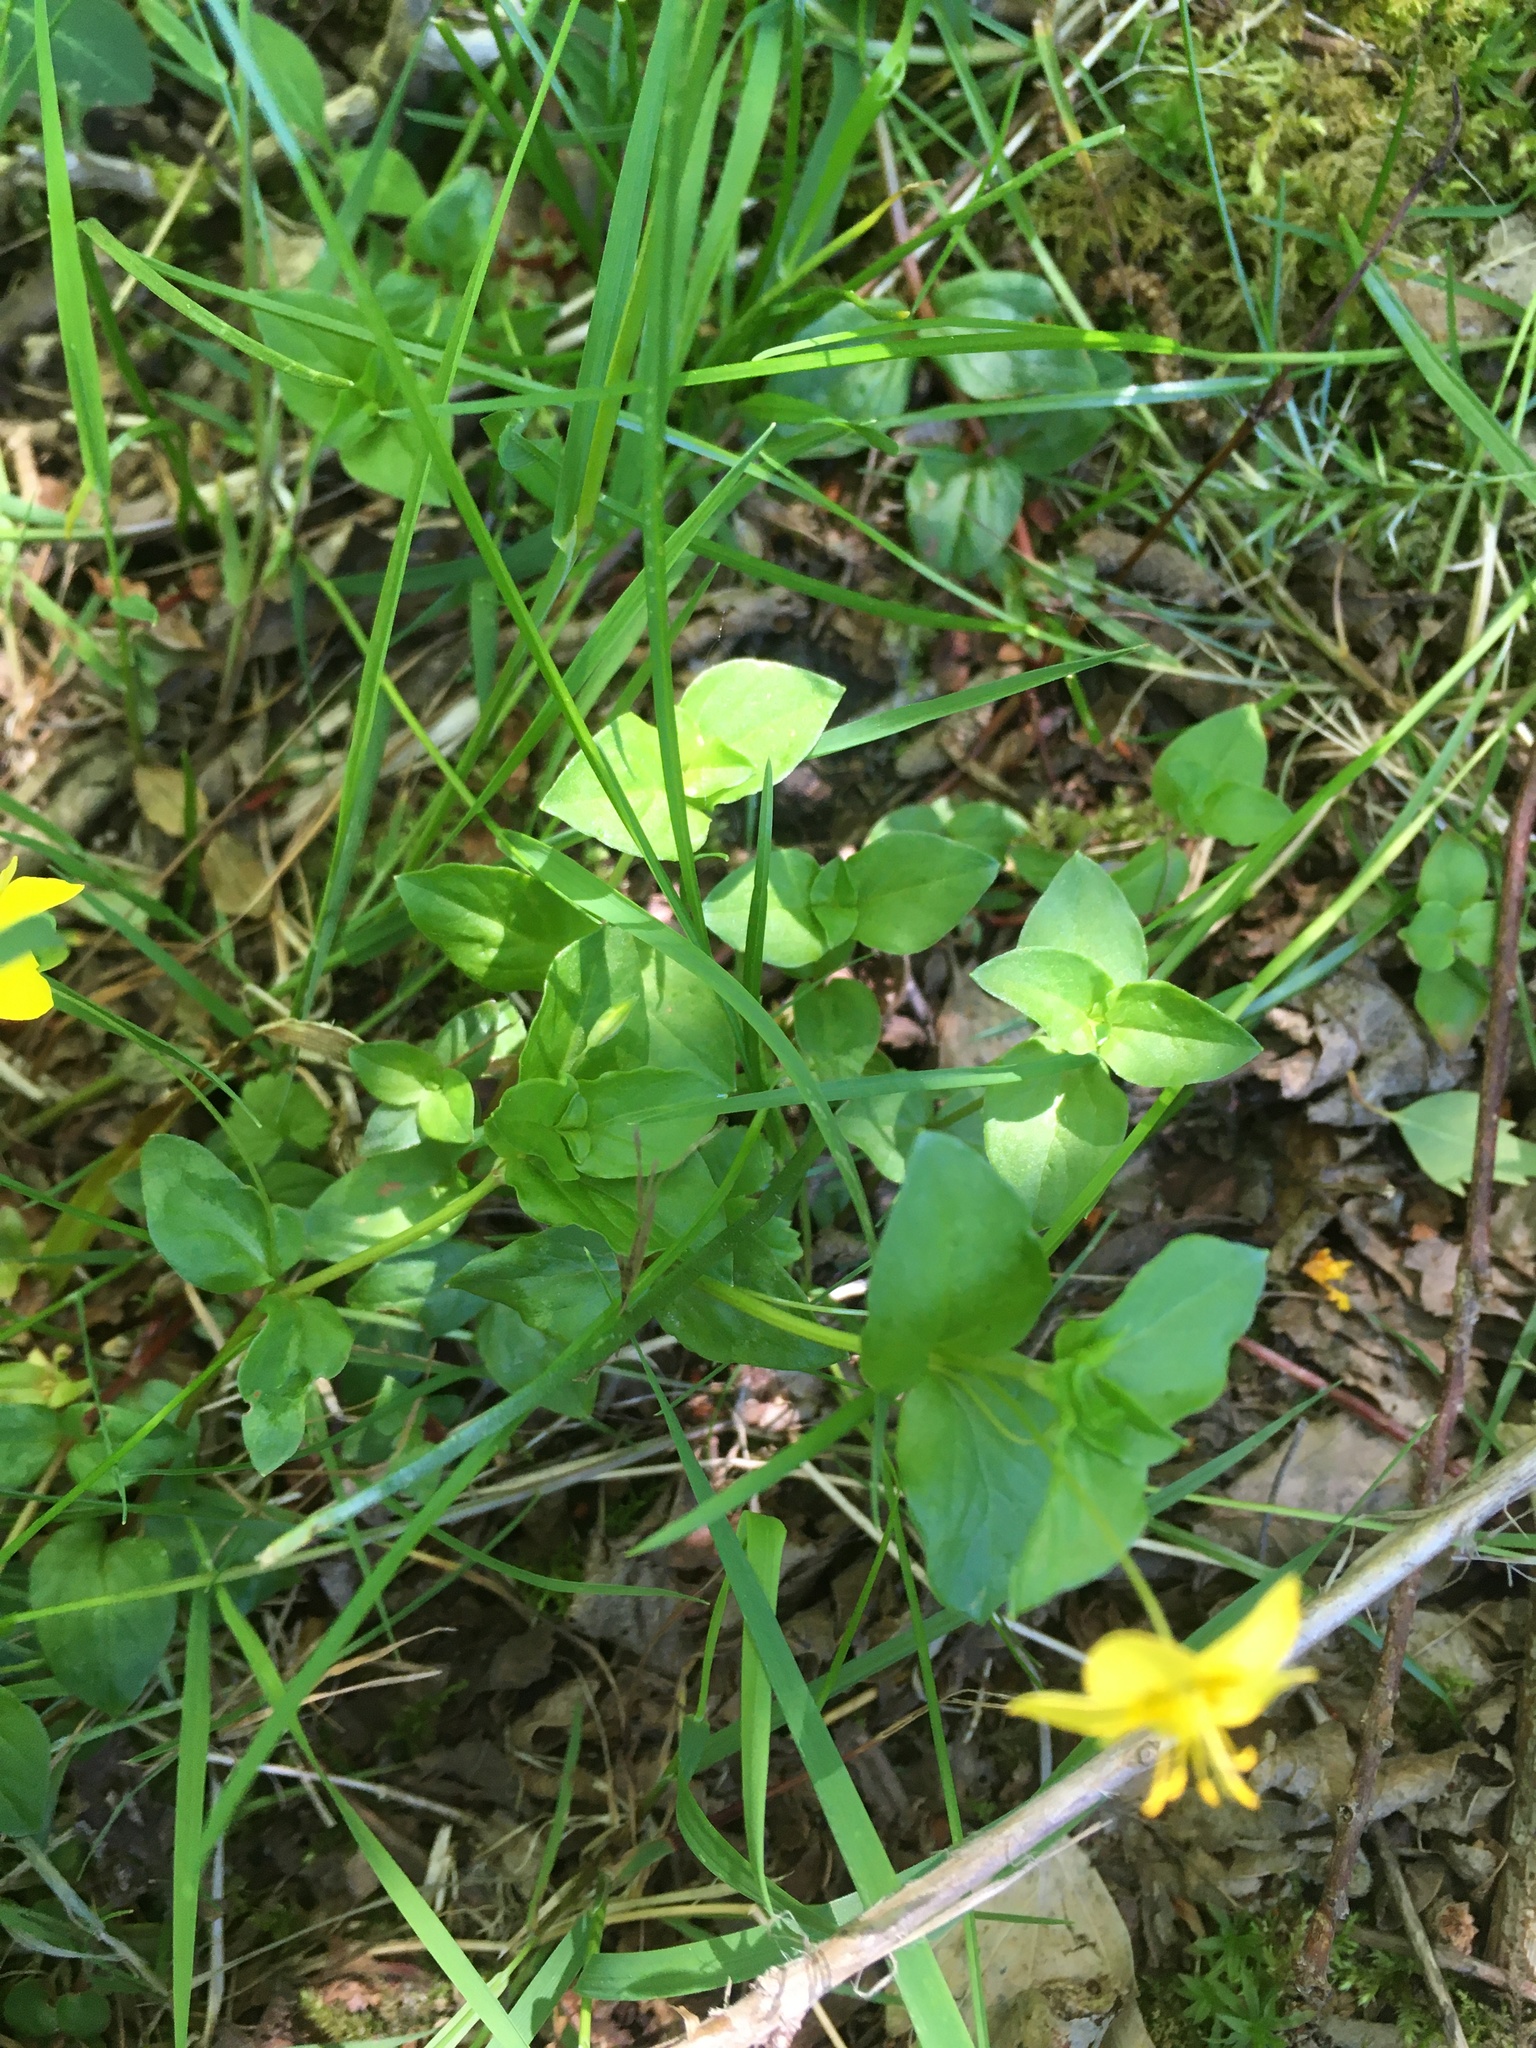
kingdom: Plantae
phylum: Tracheophyta
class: Magnoliopsida
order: Ericales
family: Primulaceae
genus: Lysimachia
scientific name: Lysimachia nemorum
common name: Yellow pimpernel
